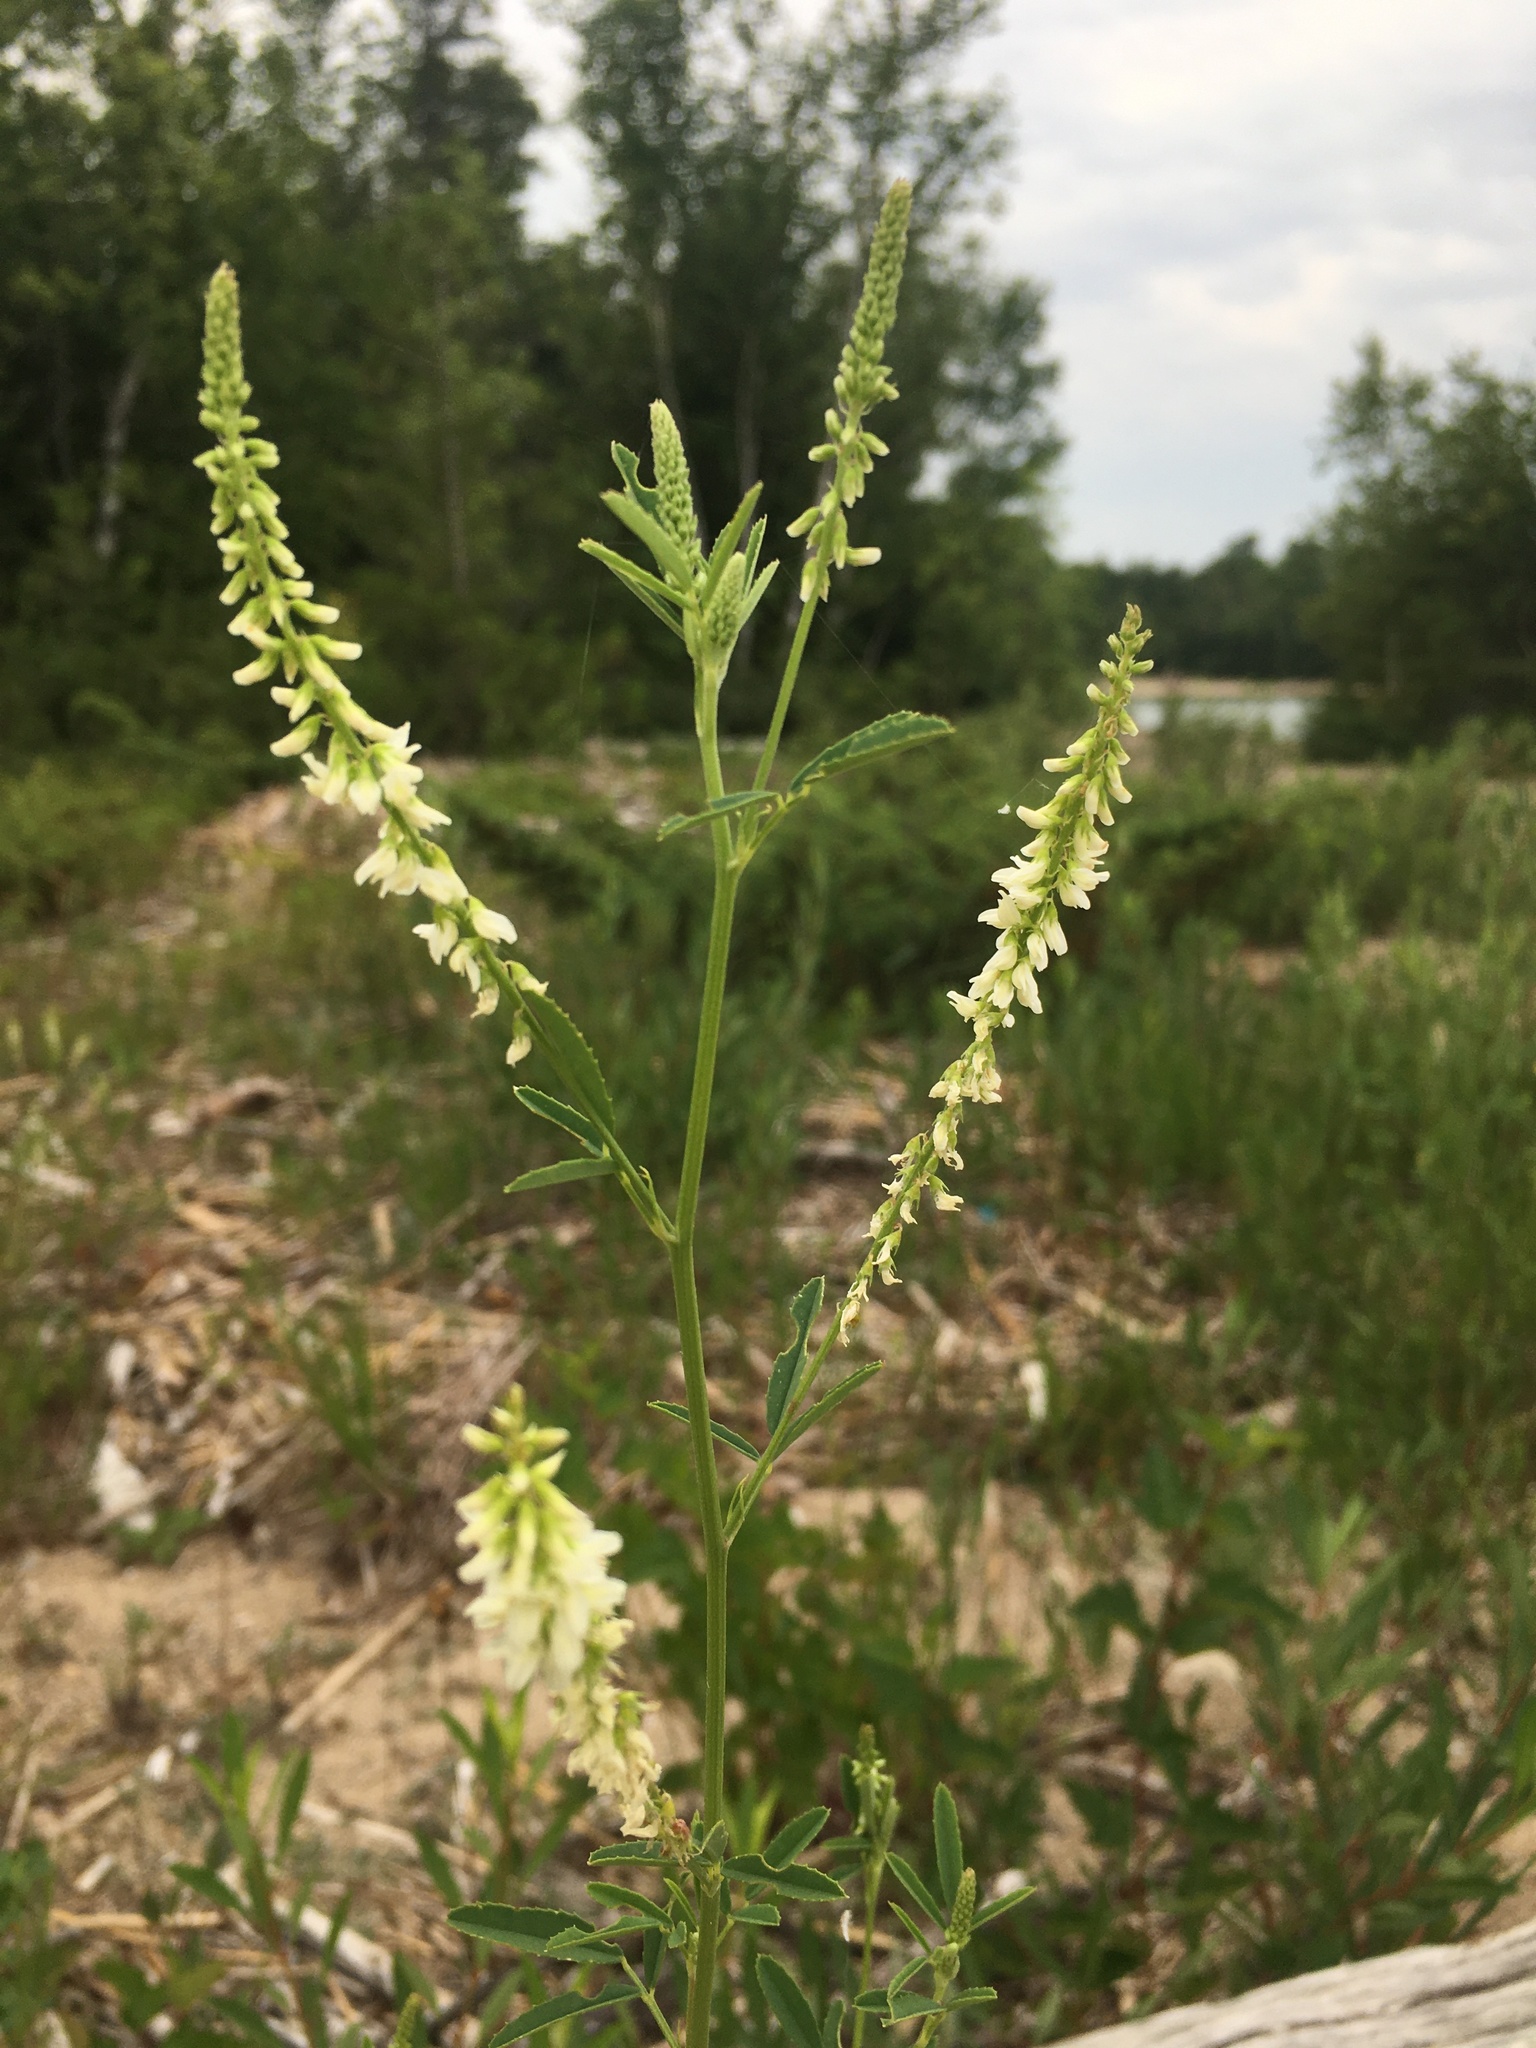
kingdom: Plantae
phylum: Tracheophyta
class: Magnoliopsida
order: Fabales
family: Fabaceae
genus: Melilotus
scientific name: Melilotus albus
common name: White melilot
